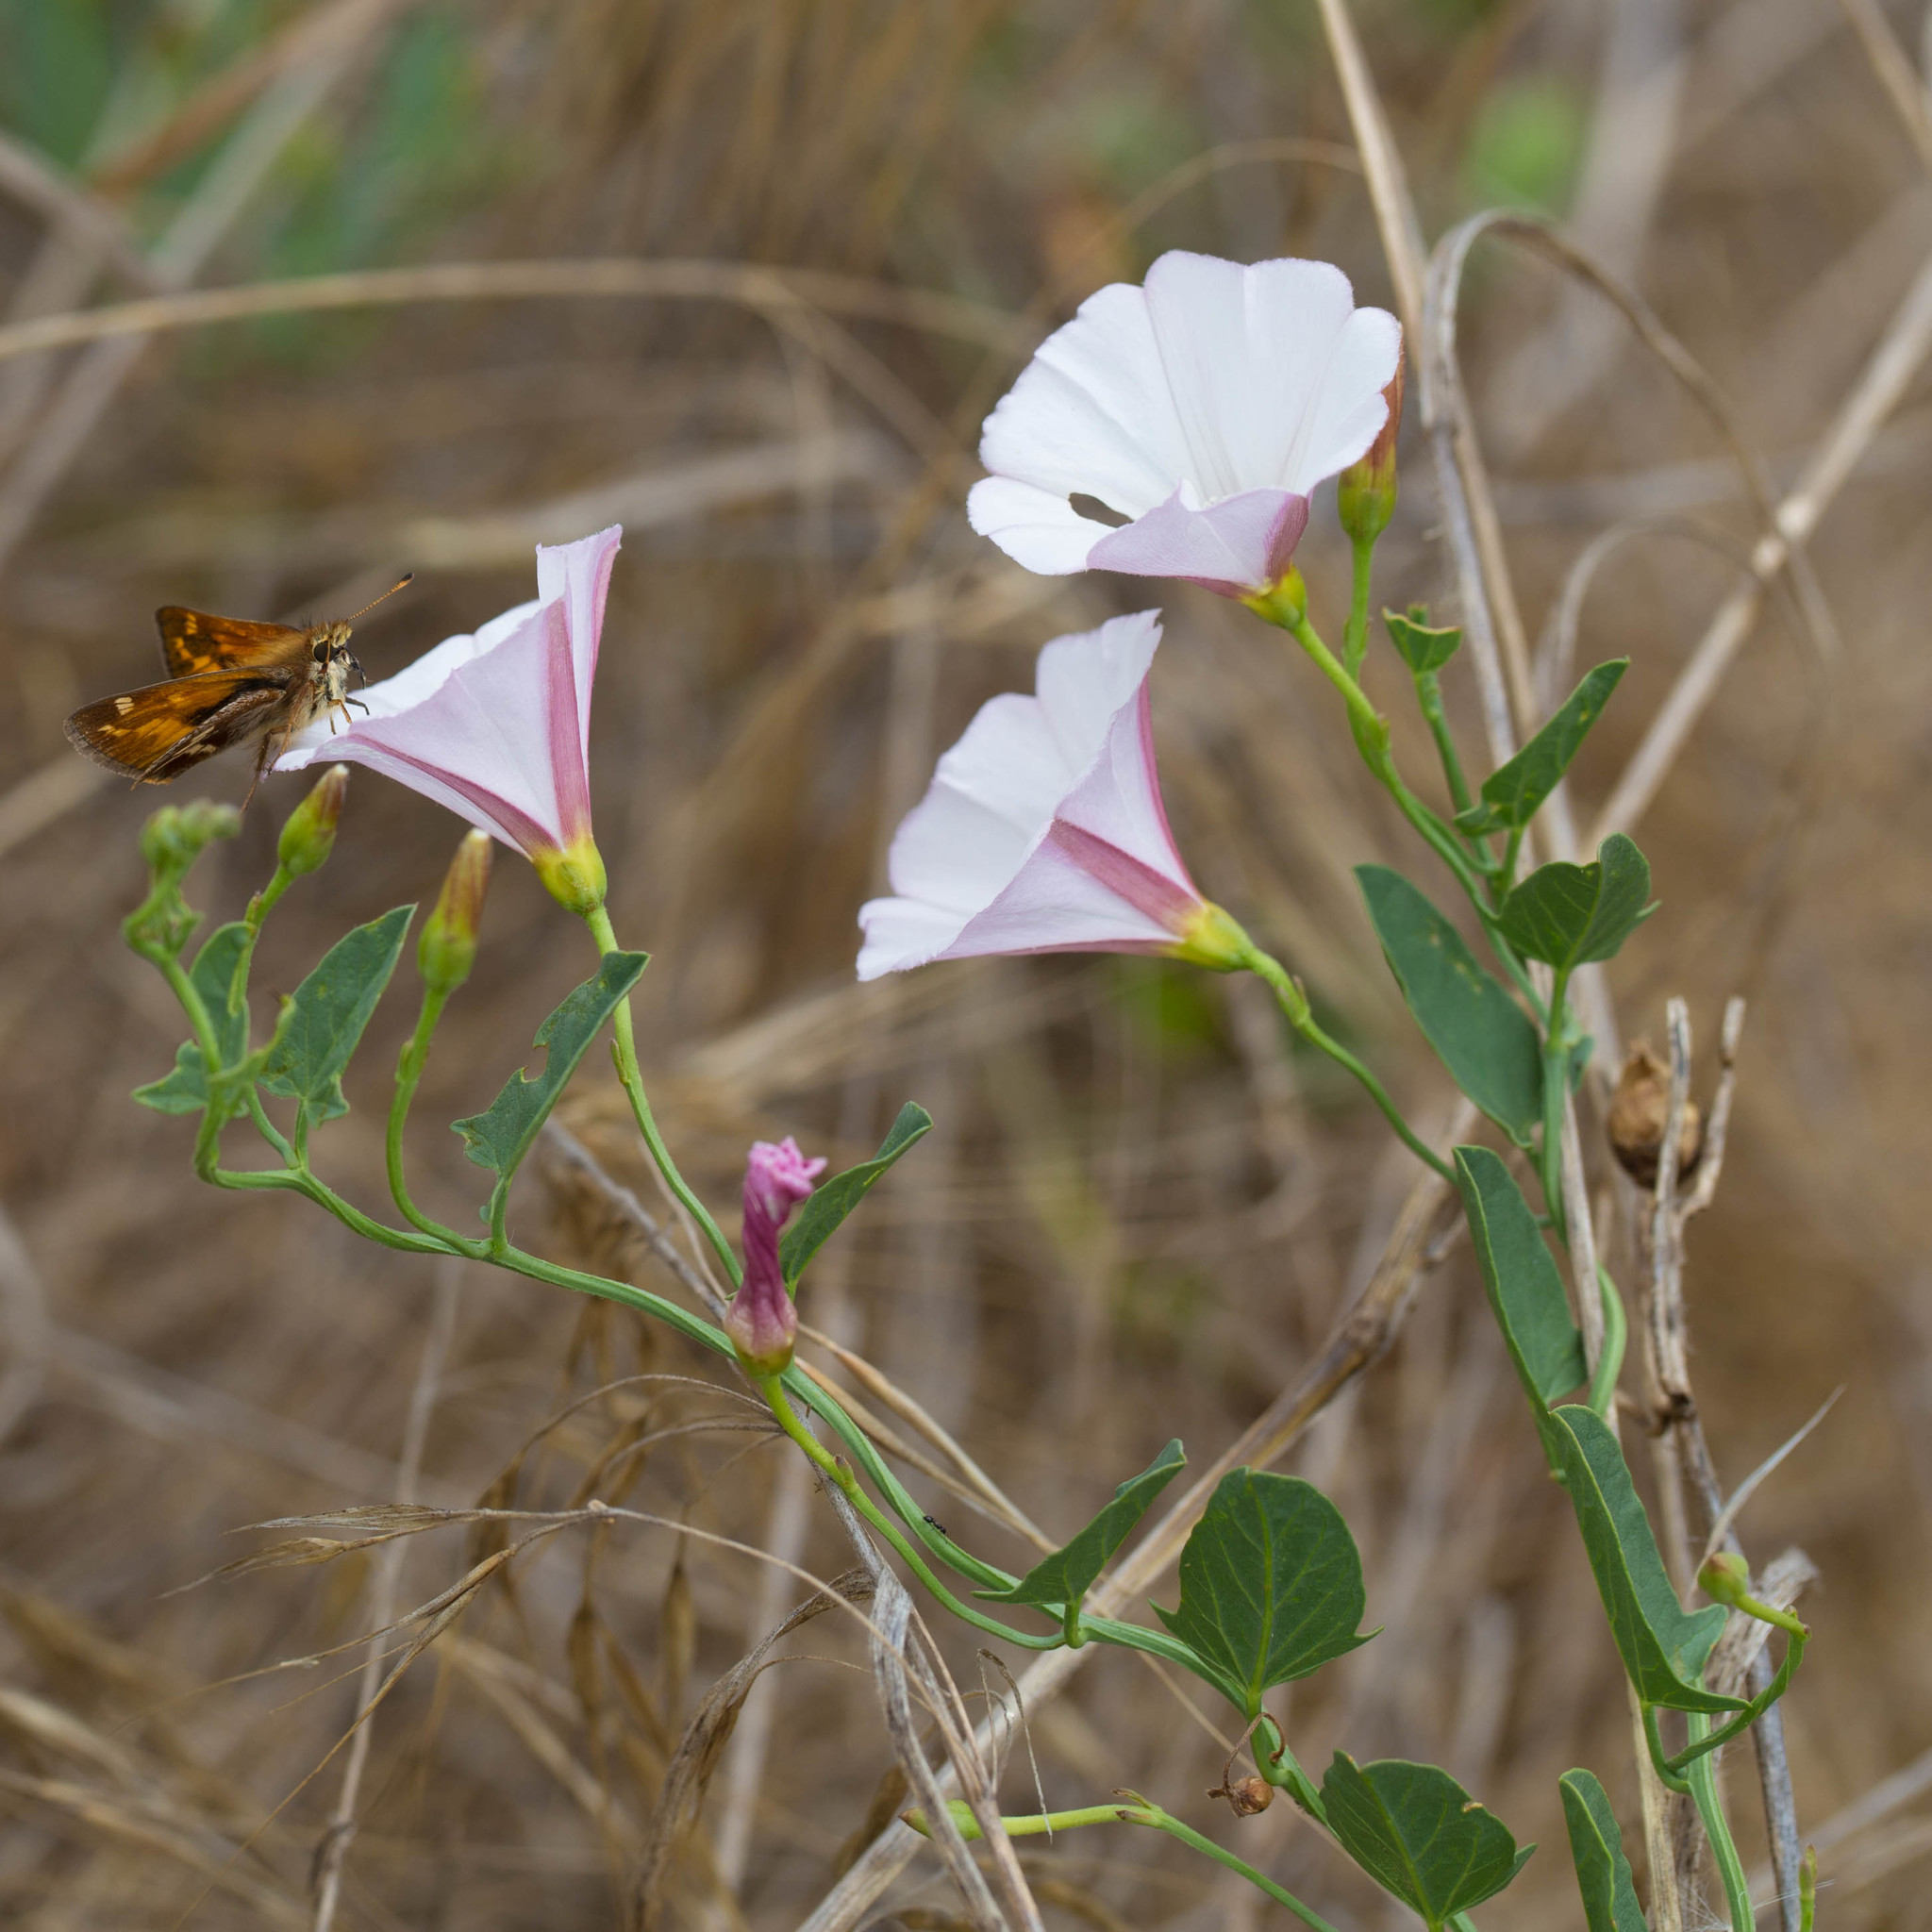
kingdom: Plantae
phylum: Tracheophyta
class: Magnoliopsida
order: Solanales
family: Convolvulaceae
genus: Convolvulus
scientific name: Convolvulus arvensis
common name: Field bindweed
